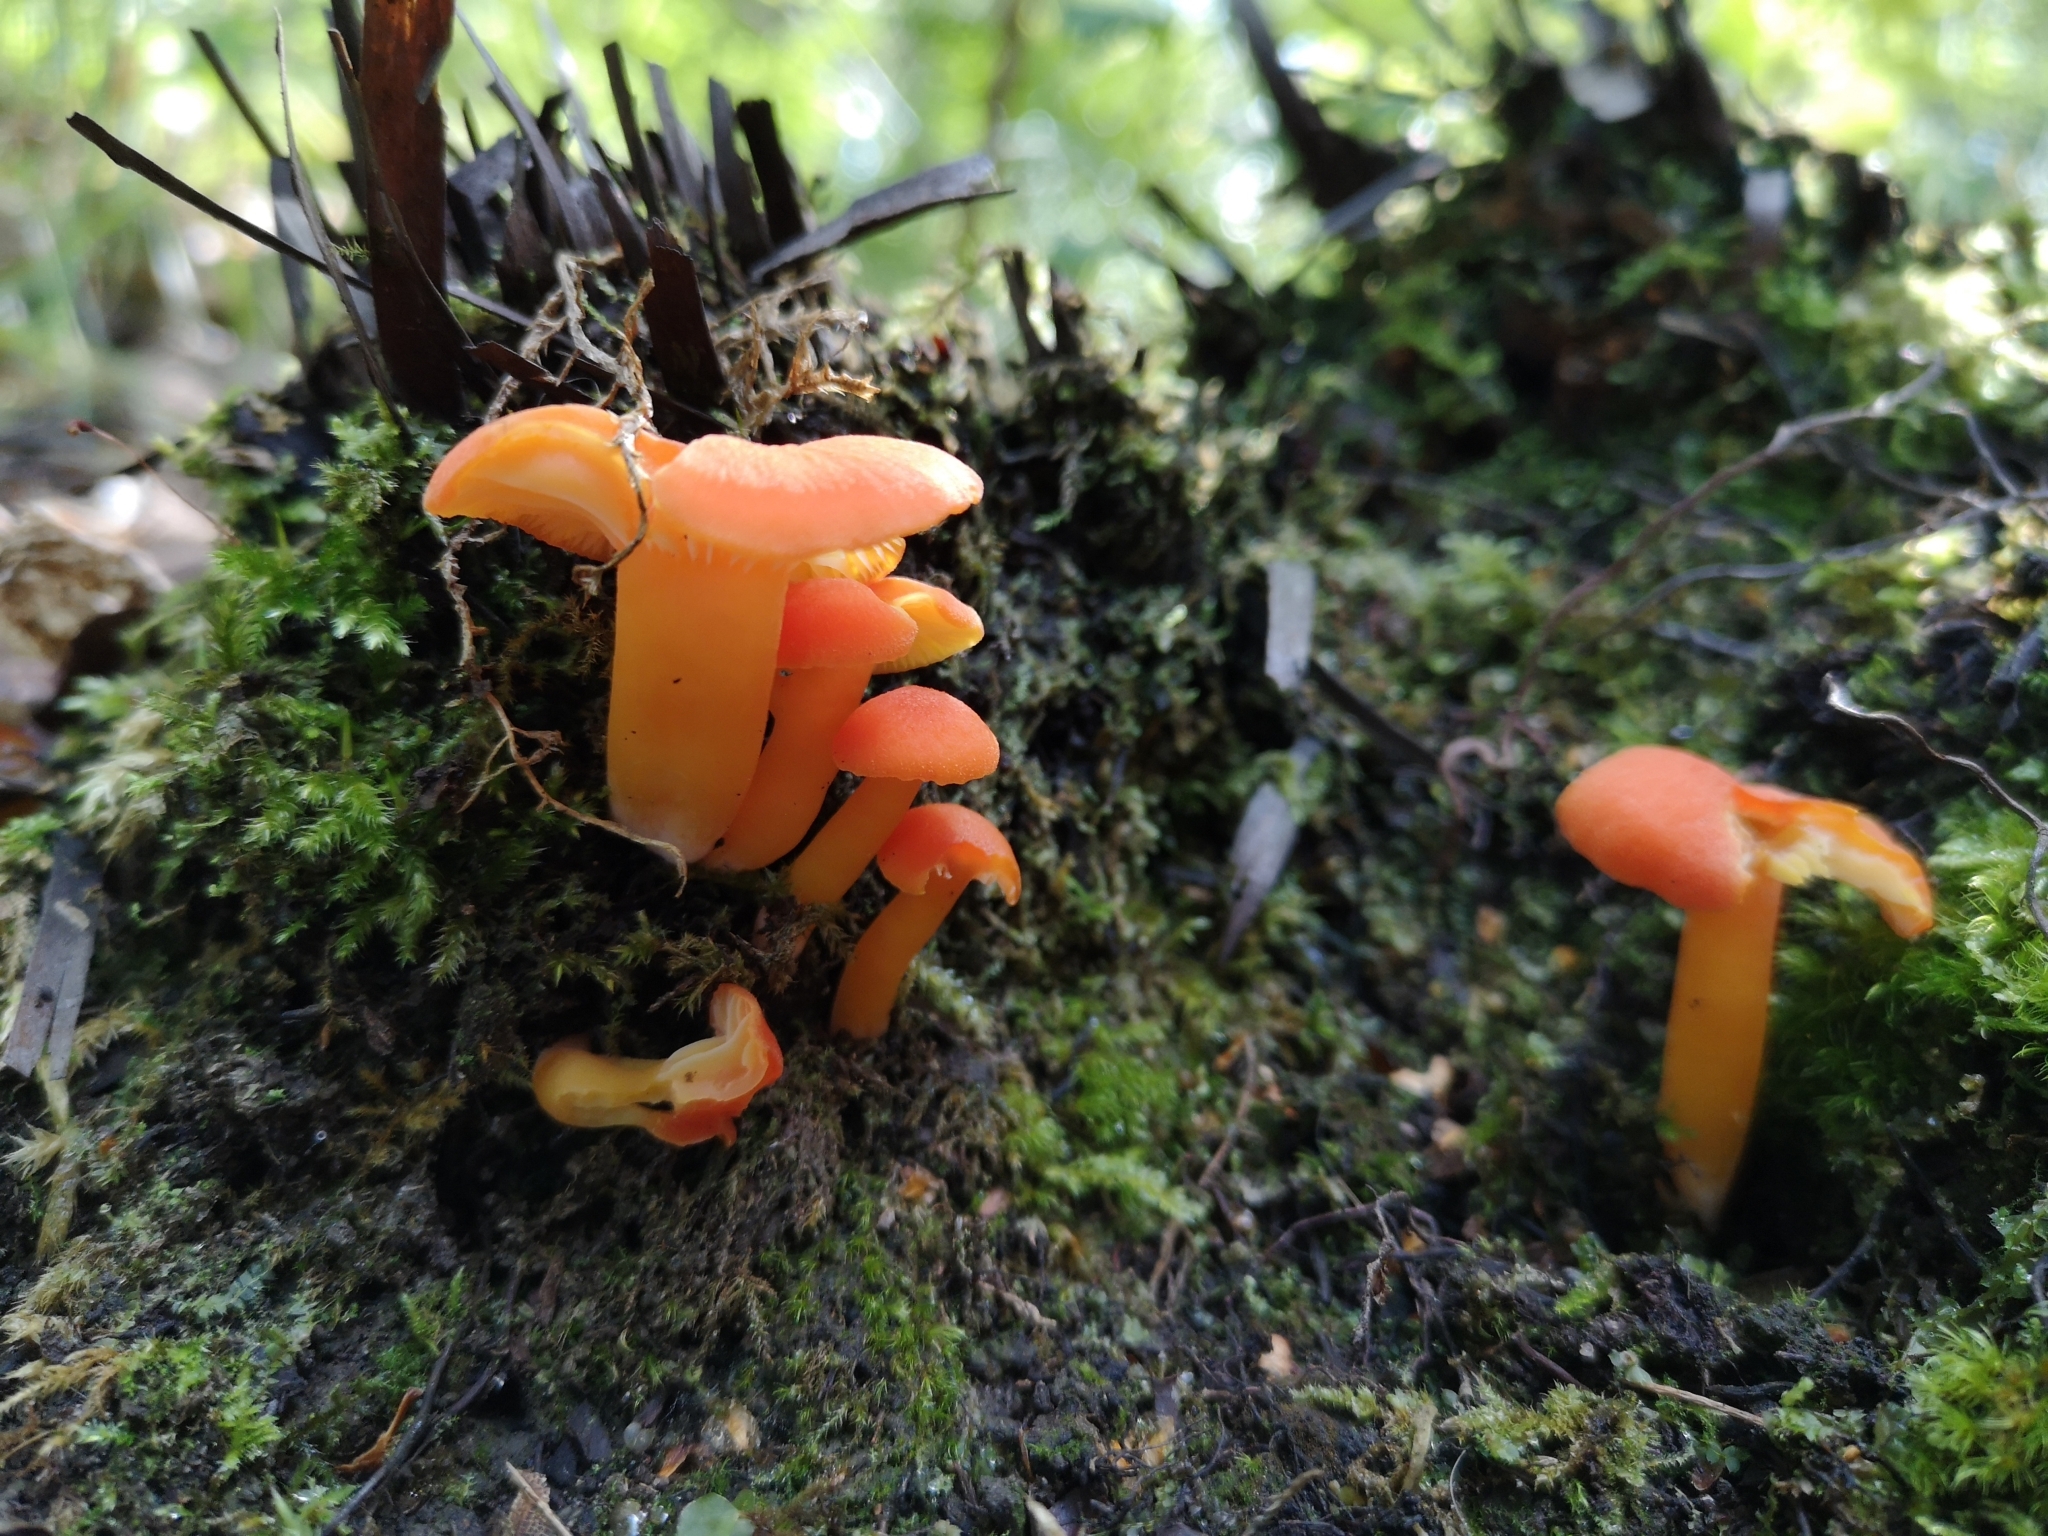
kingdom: Fungi
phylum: Basidiomycota
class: Agaricomycetes
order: Agaricales
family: Hygrophoraceae
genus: Hygrocybe
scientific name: Hygrocybe reidii
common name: Honey waxcap
